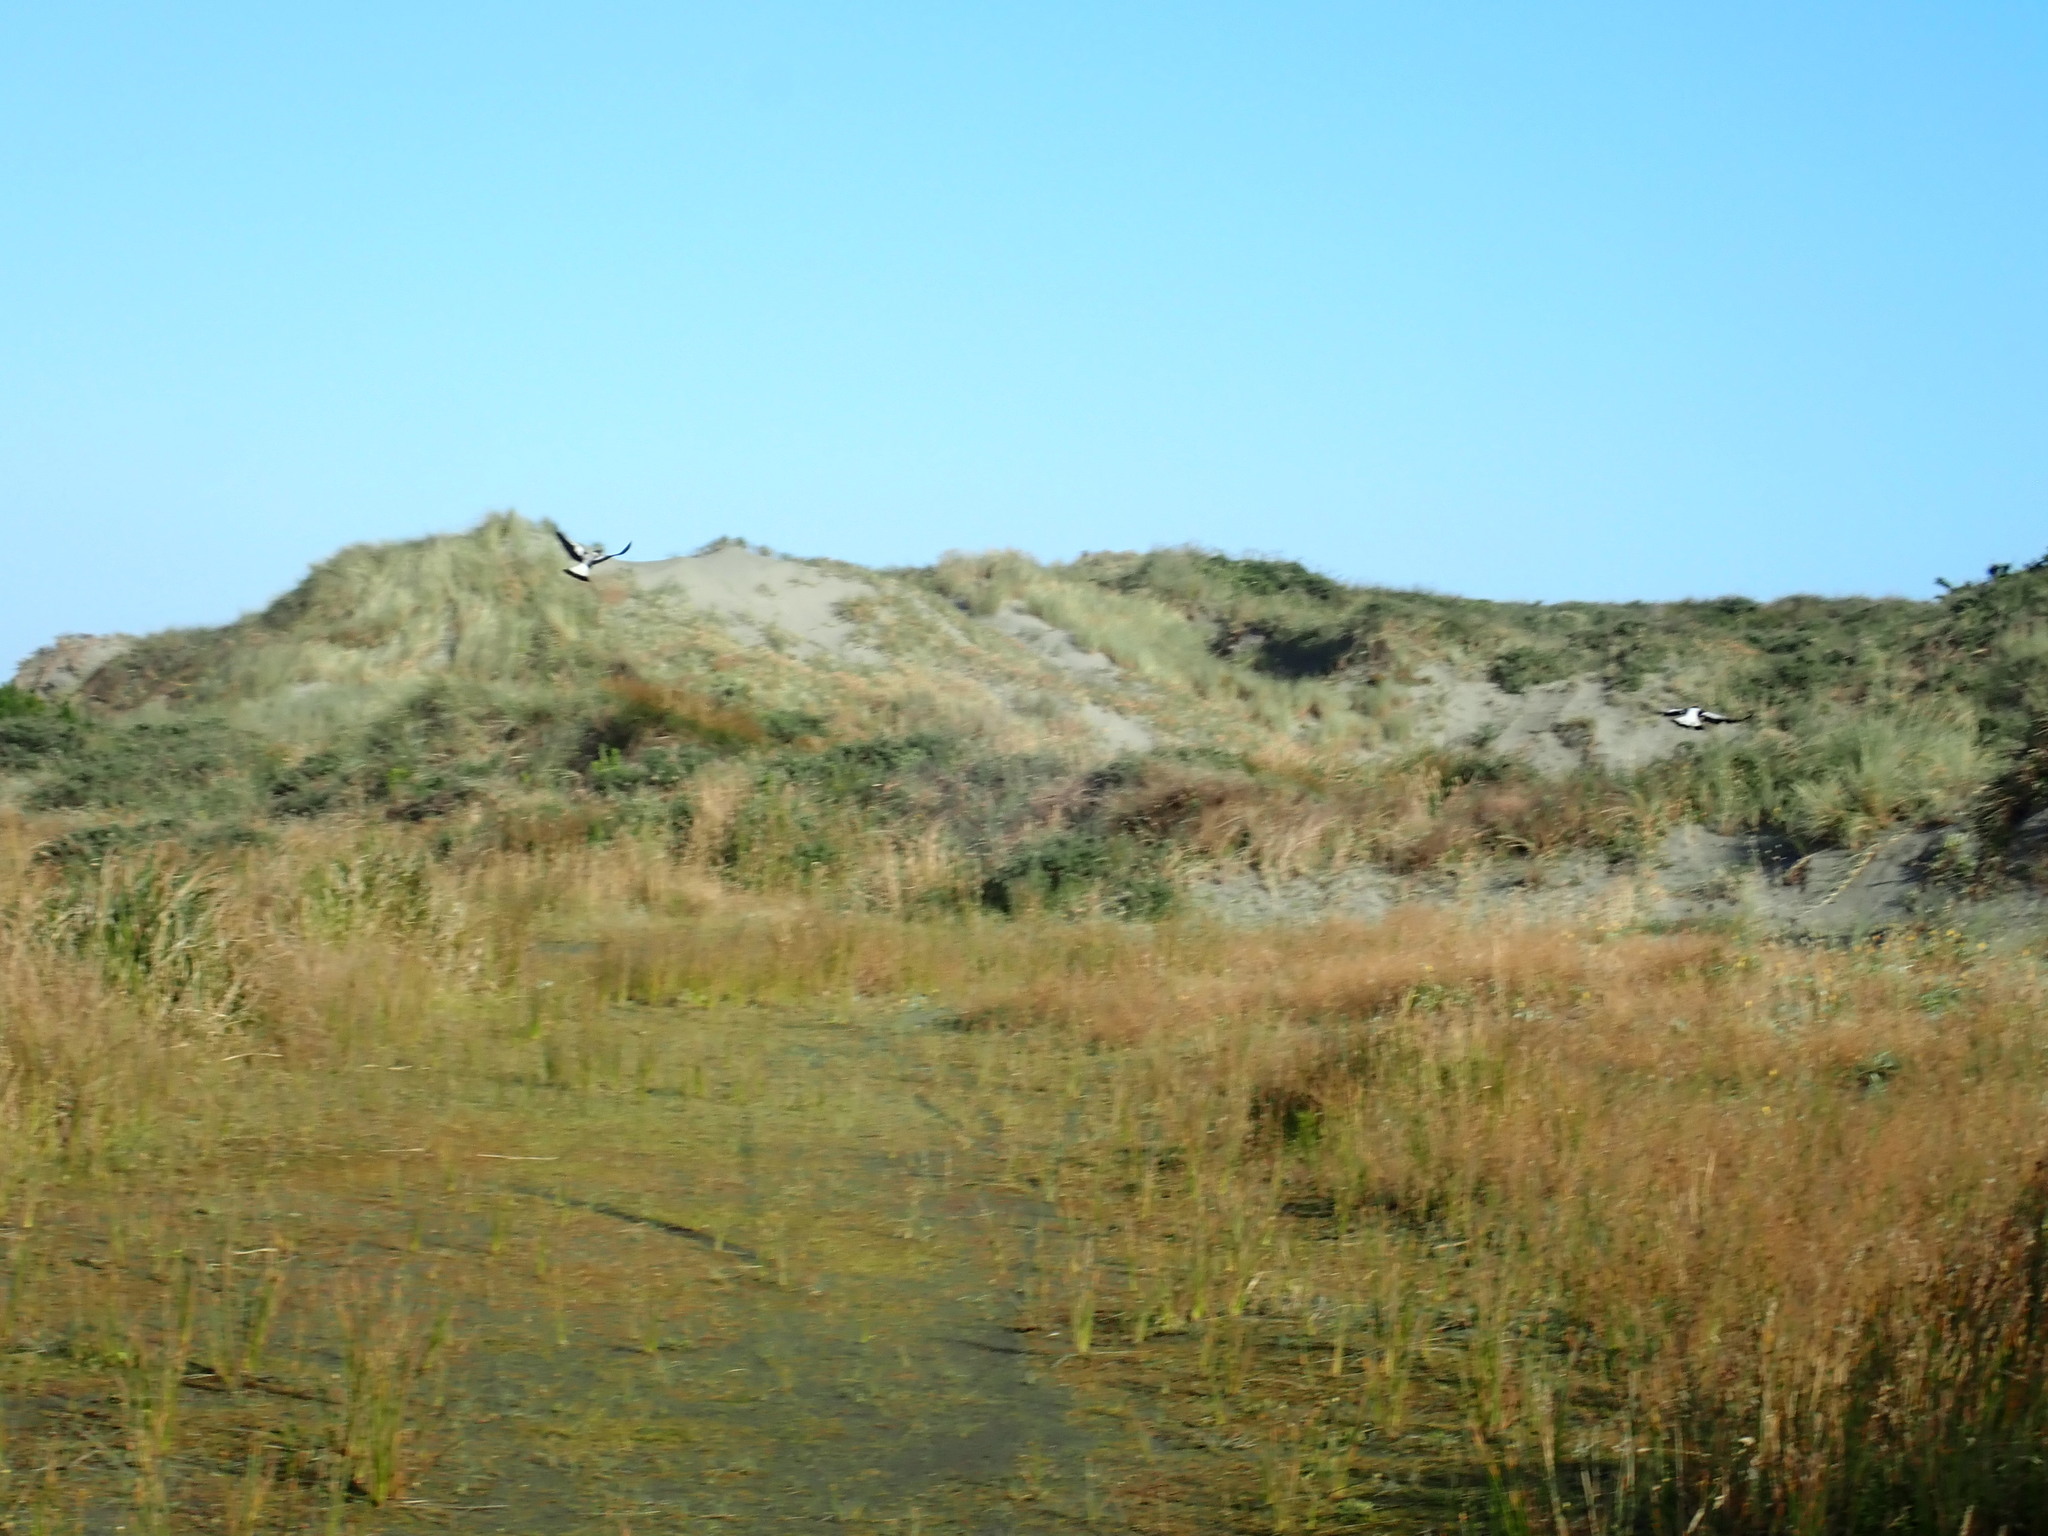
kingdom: Animalia
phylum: Chordata
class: Aves
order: Passeriformes
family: Cracticidae
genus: Gymnorhina
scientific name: Gymnorhina tibicen
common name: Australian magpie
